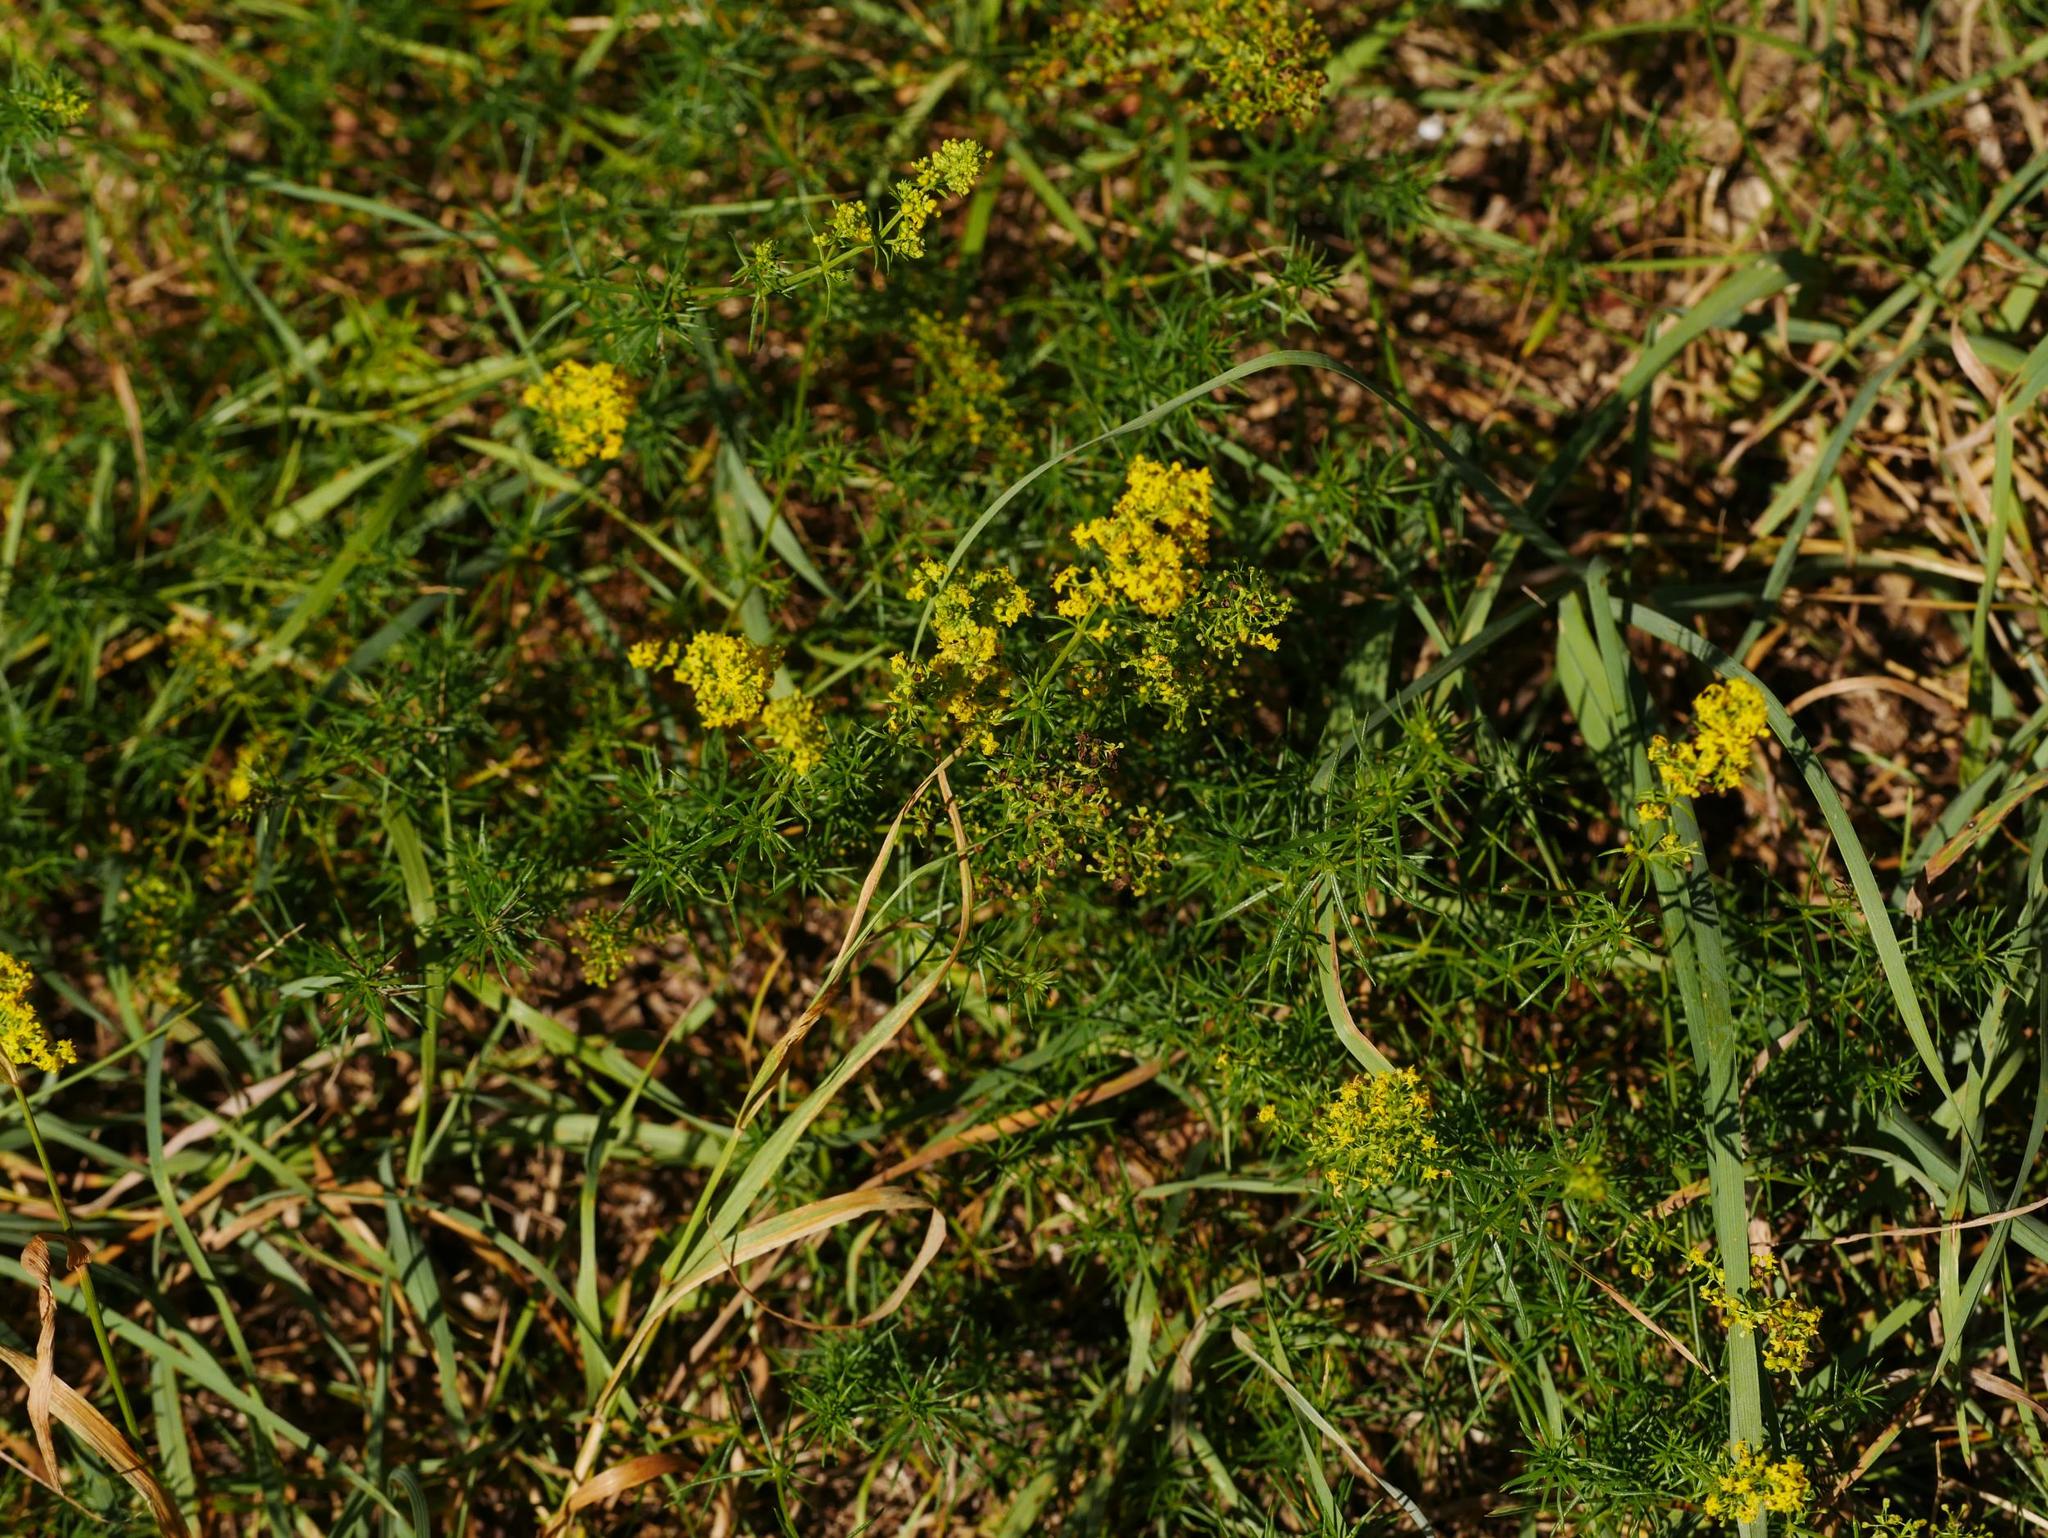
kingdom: Plantae
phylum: Tracheophyta
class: Magnoliopsida
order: Gentianales
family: Rubiaceae
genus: Galium
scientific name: Galium verum
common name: Lady's bedstraw
